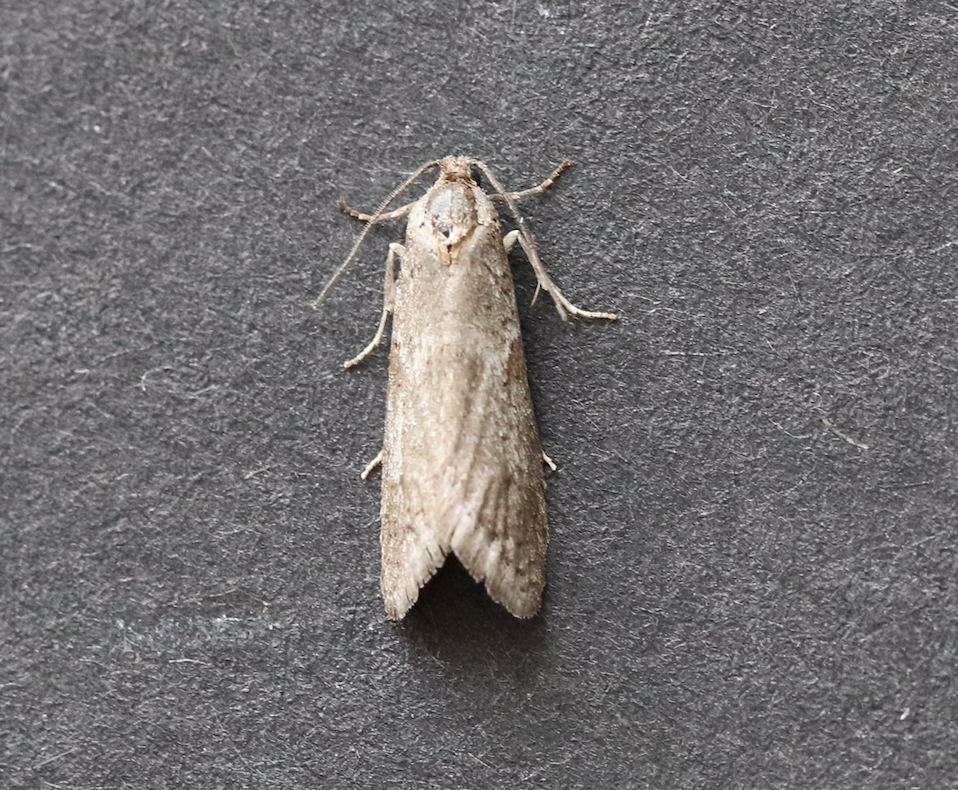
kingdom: Animalia
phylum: Arthropoda
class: Insecta
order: Lepidoptera
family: Tortricidae
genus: Tortricodes
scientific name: Tortricodes alternella
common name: Winter shade
